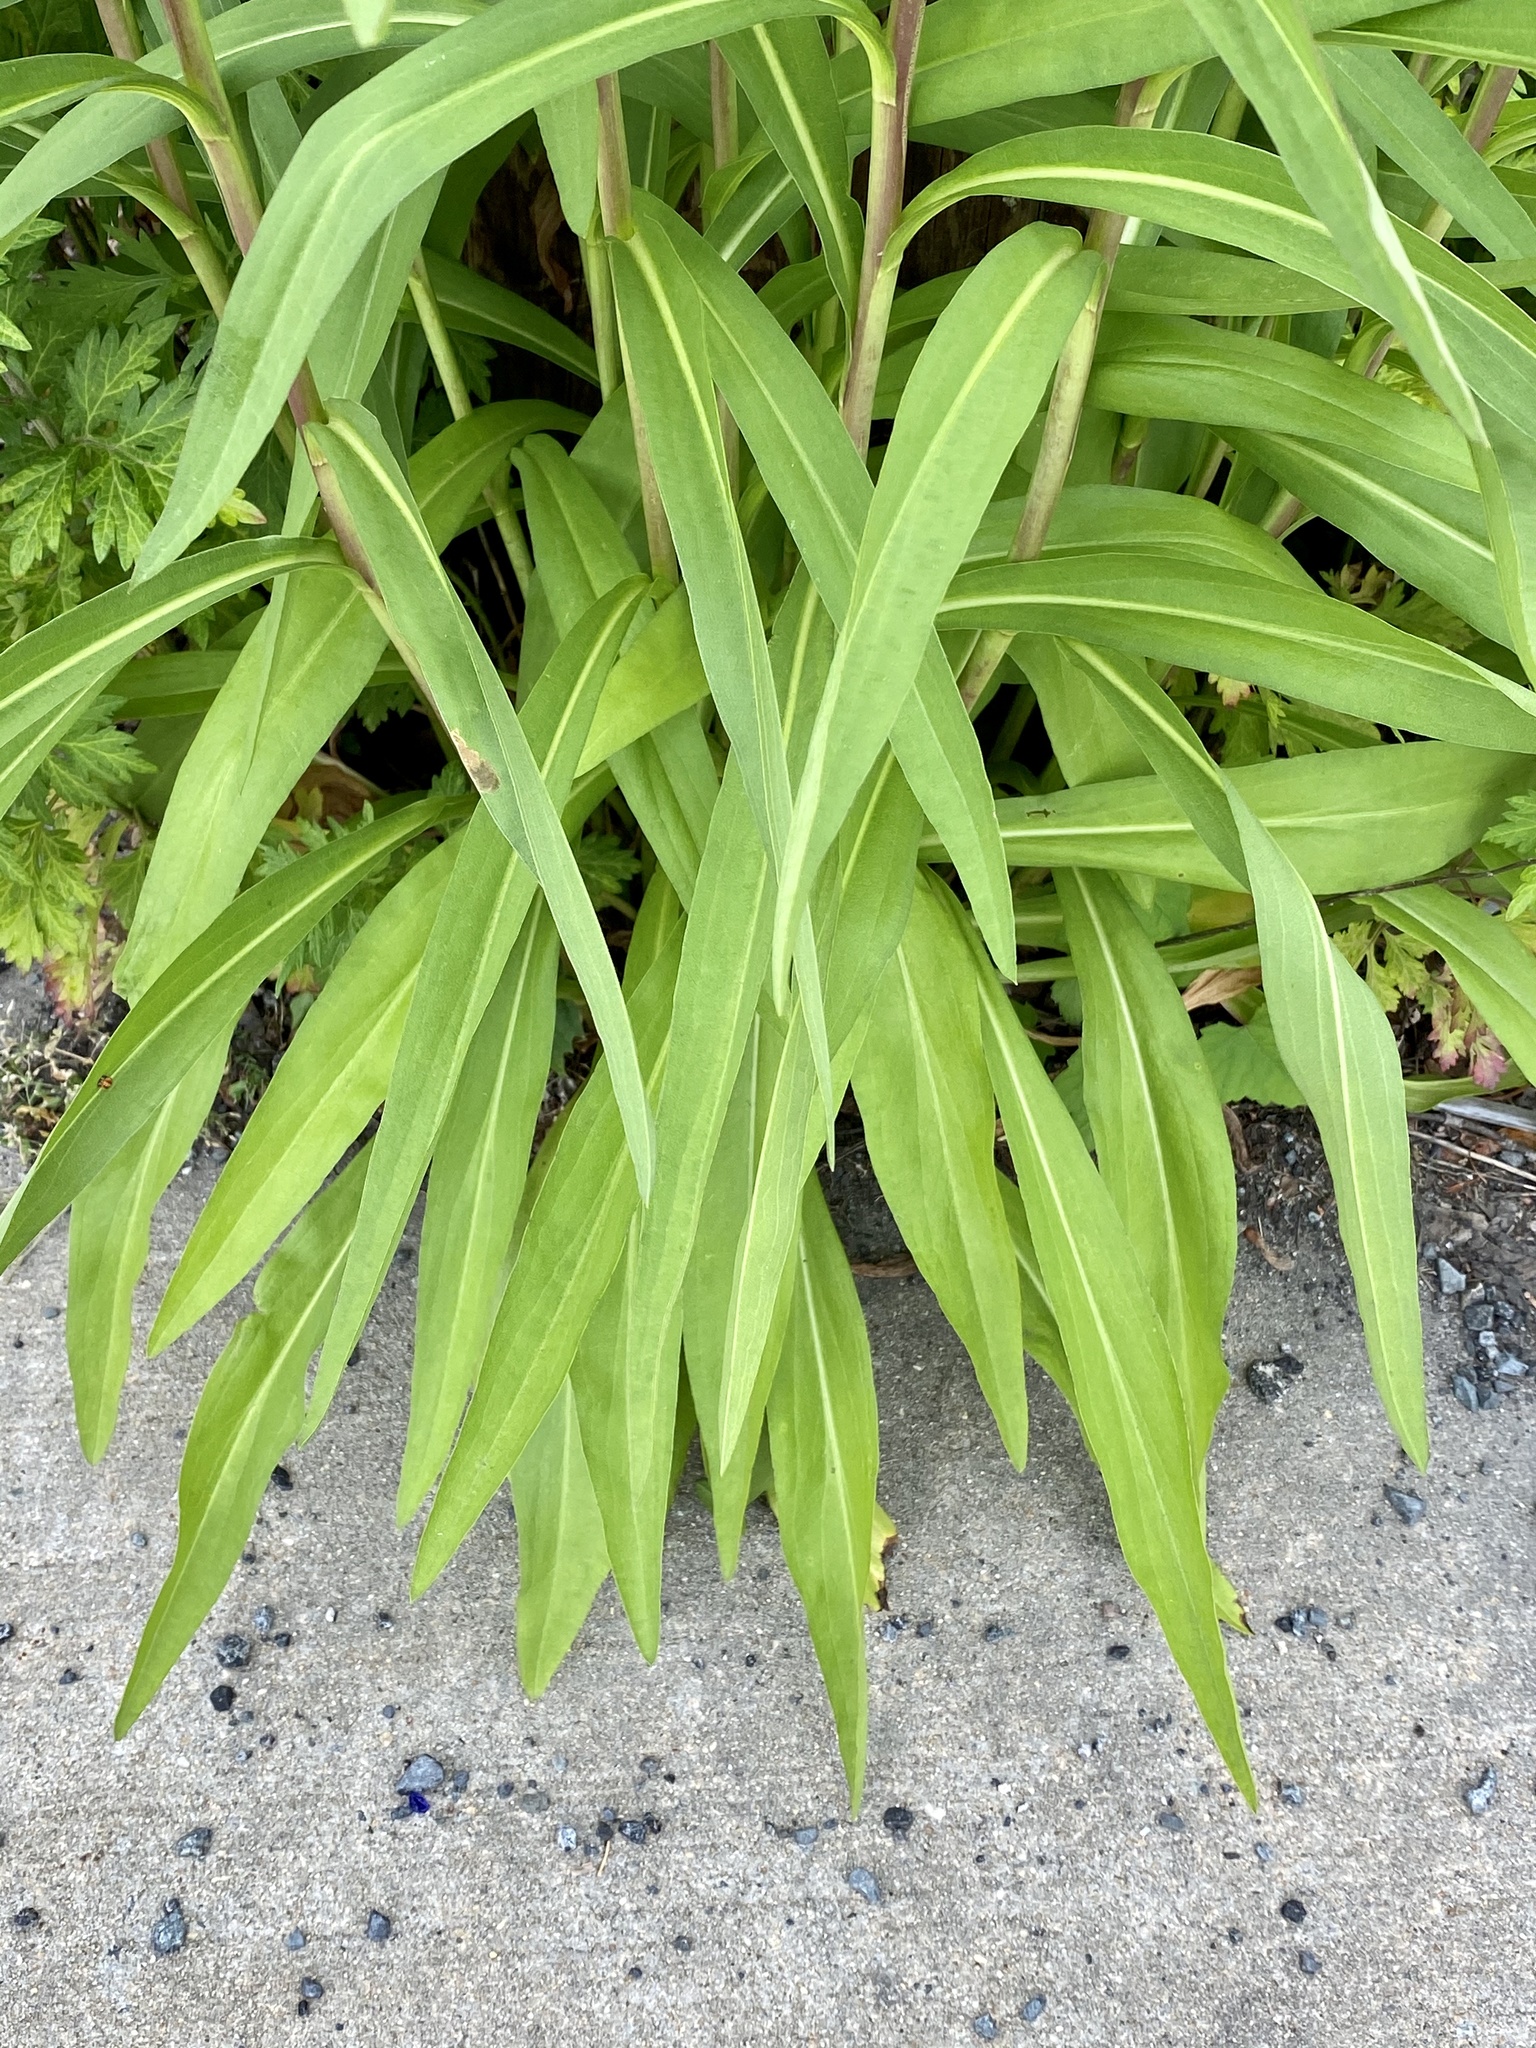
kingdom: Plantae
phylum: Tracheophyta
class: Magnoliopsida
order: Asterales
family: Asteraceae
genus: Solidago
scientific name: Solidago sempervirens
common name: Salt-marsh goldenrod
